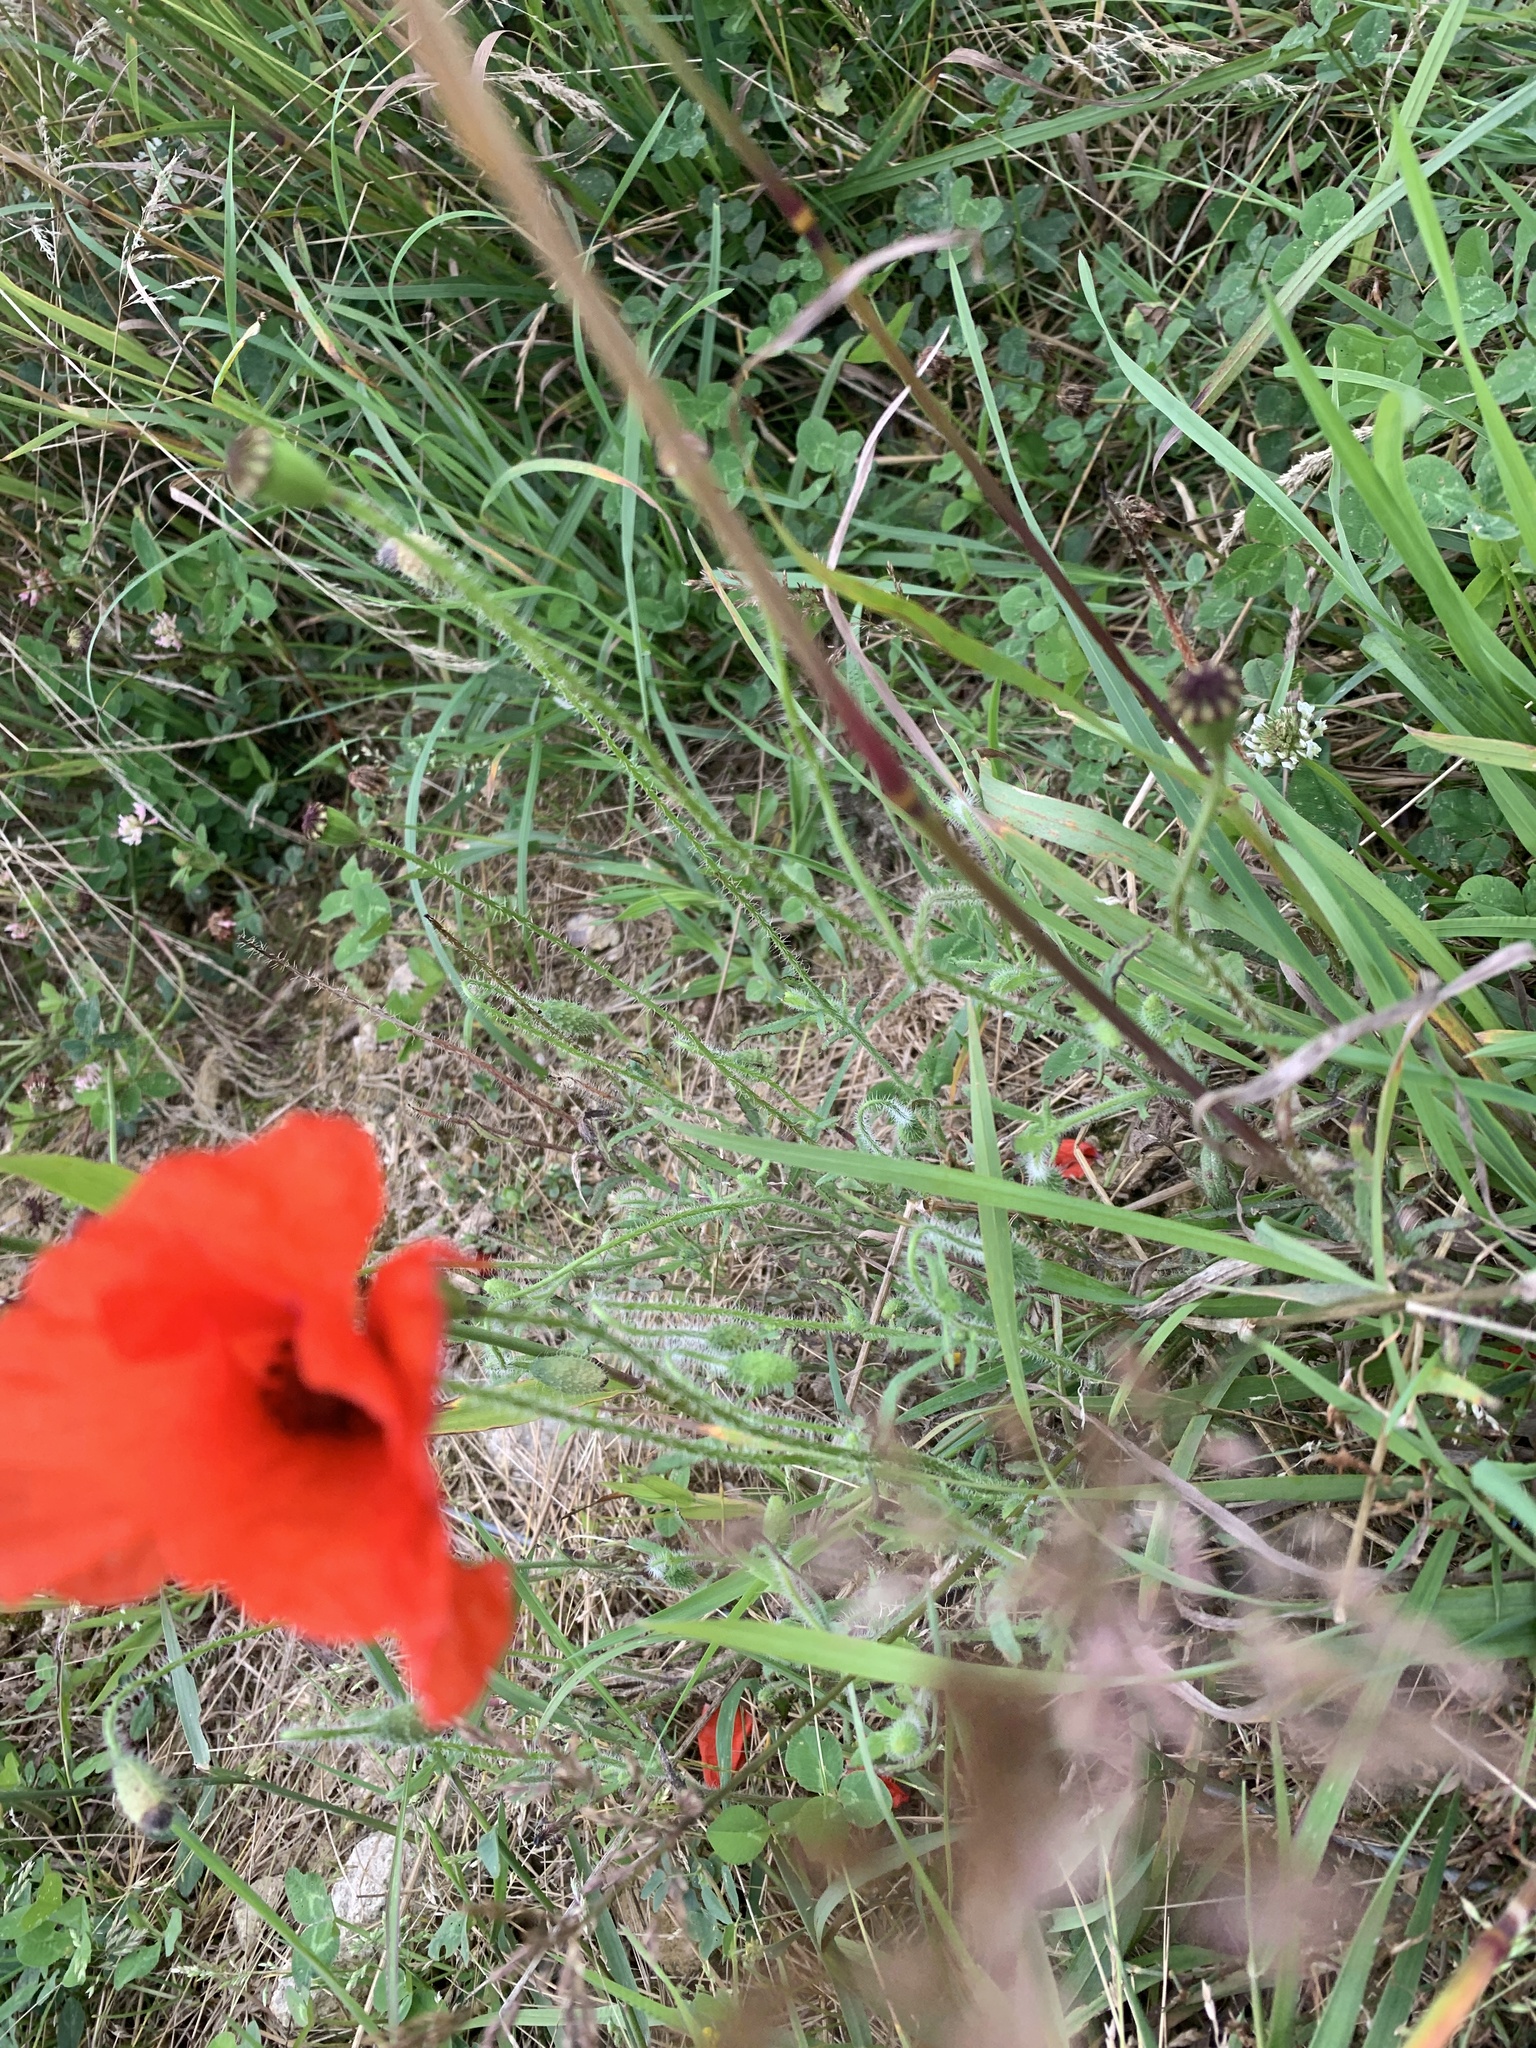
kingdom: Plantae
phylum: Tracheophyta
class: Magnoliopsida
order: Ranunculales
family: Papaveraceae
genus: Papaver
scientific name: Papaver rhoeas
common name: Corn poppy
